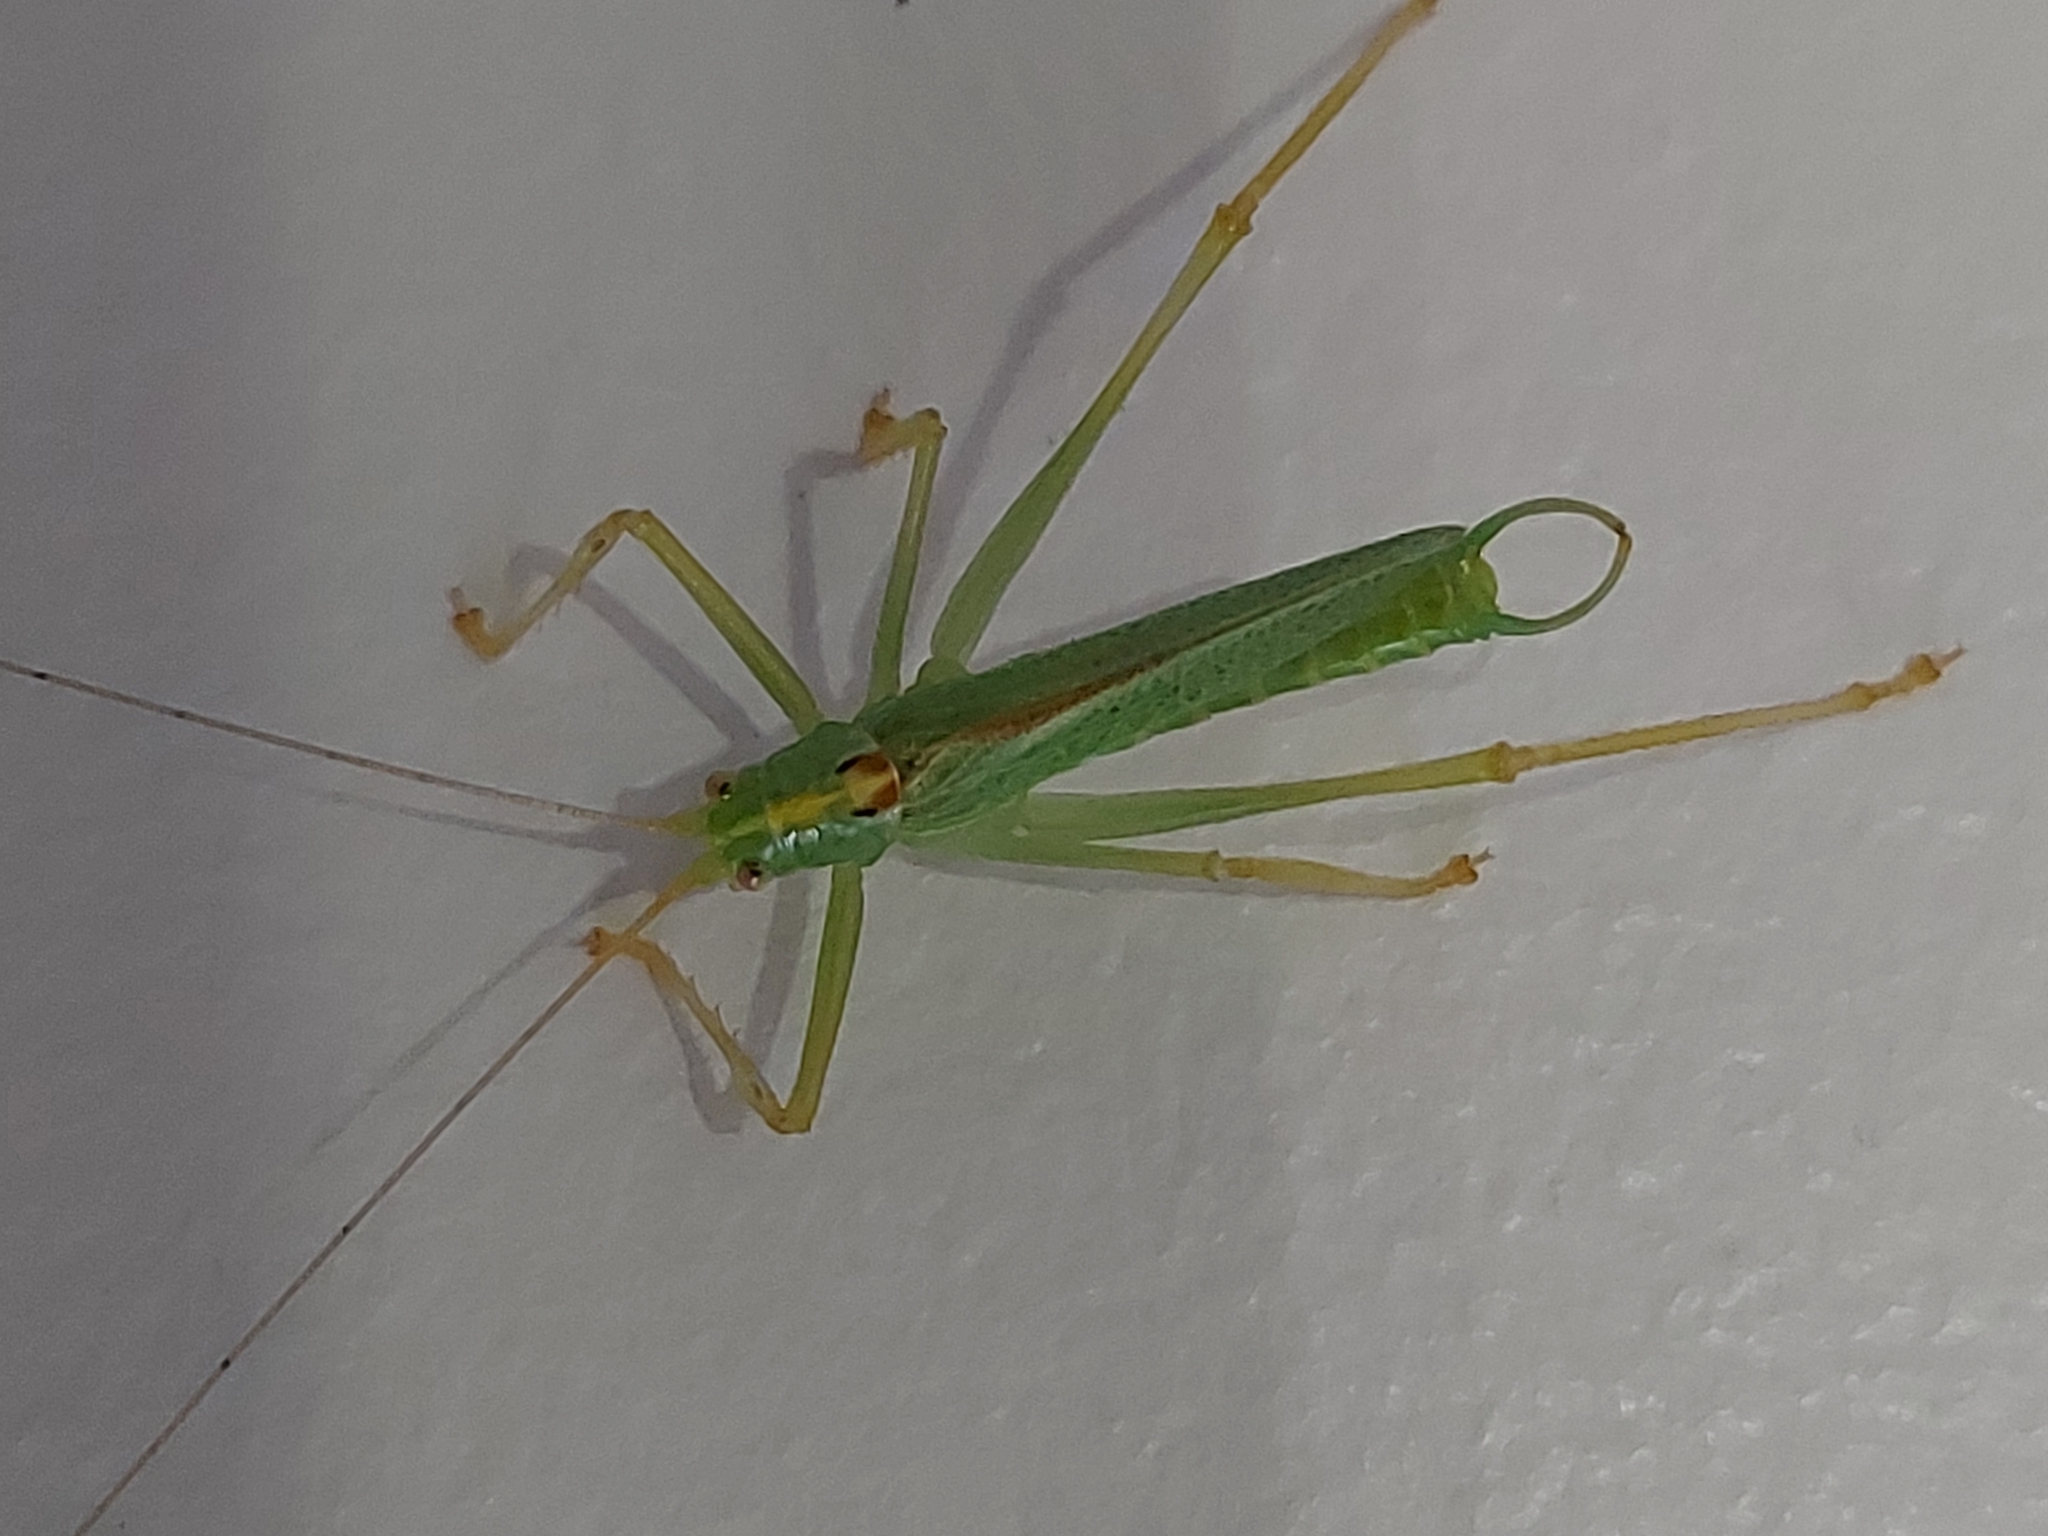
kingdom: Animalia
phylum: Arthropoda
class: Insecta
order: Orthoptera
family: Tettigoniidae
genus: Meconema
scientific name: Meconema thalassinum
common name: Oak bush-cricket
